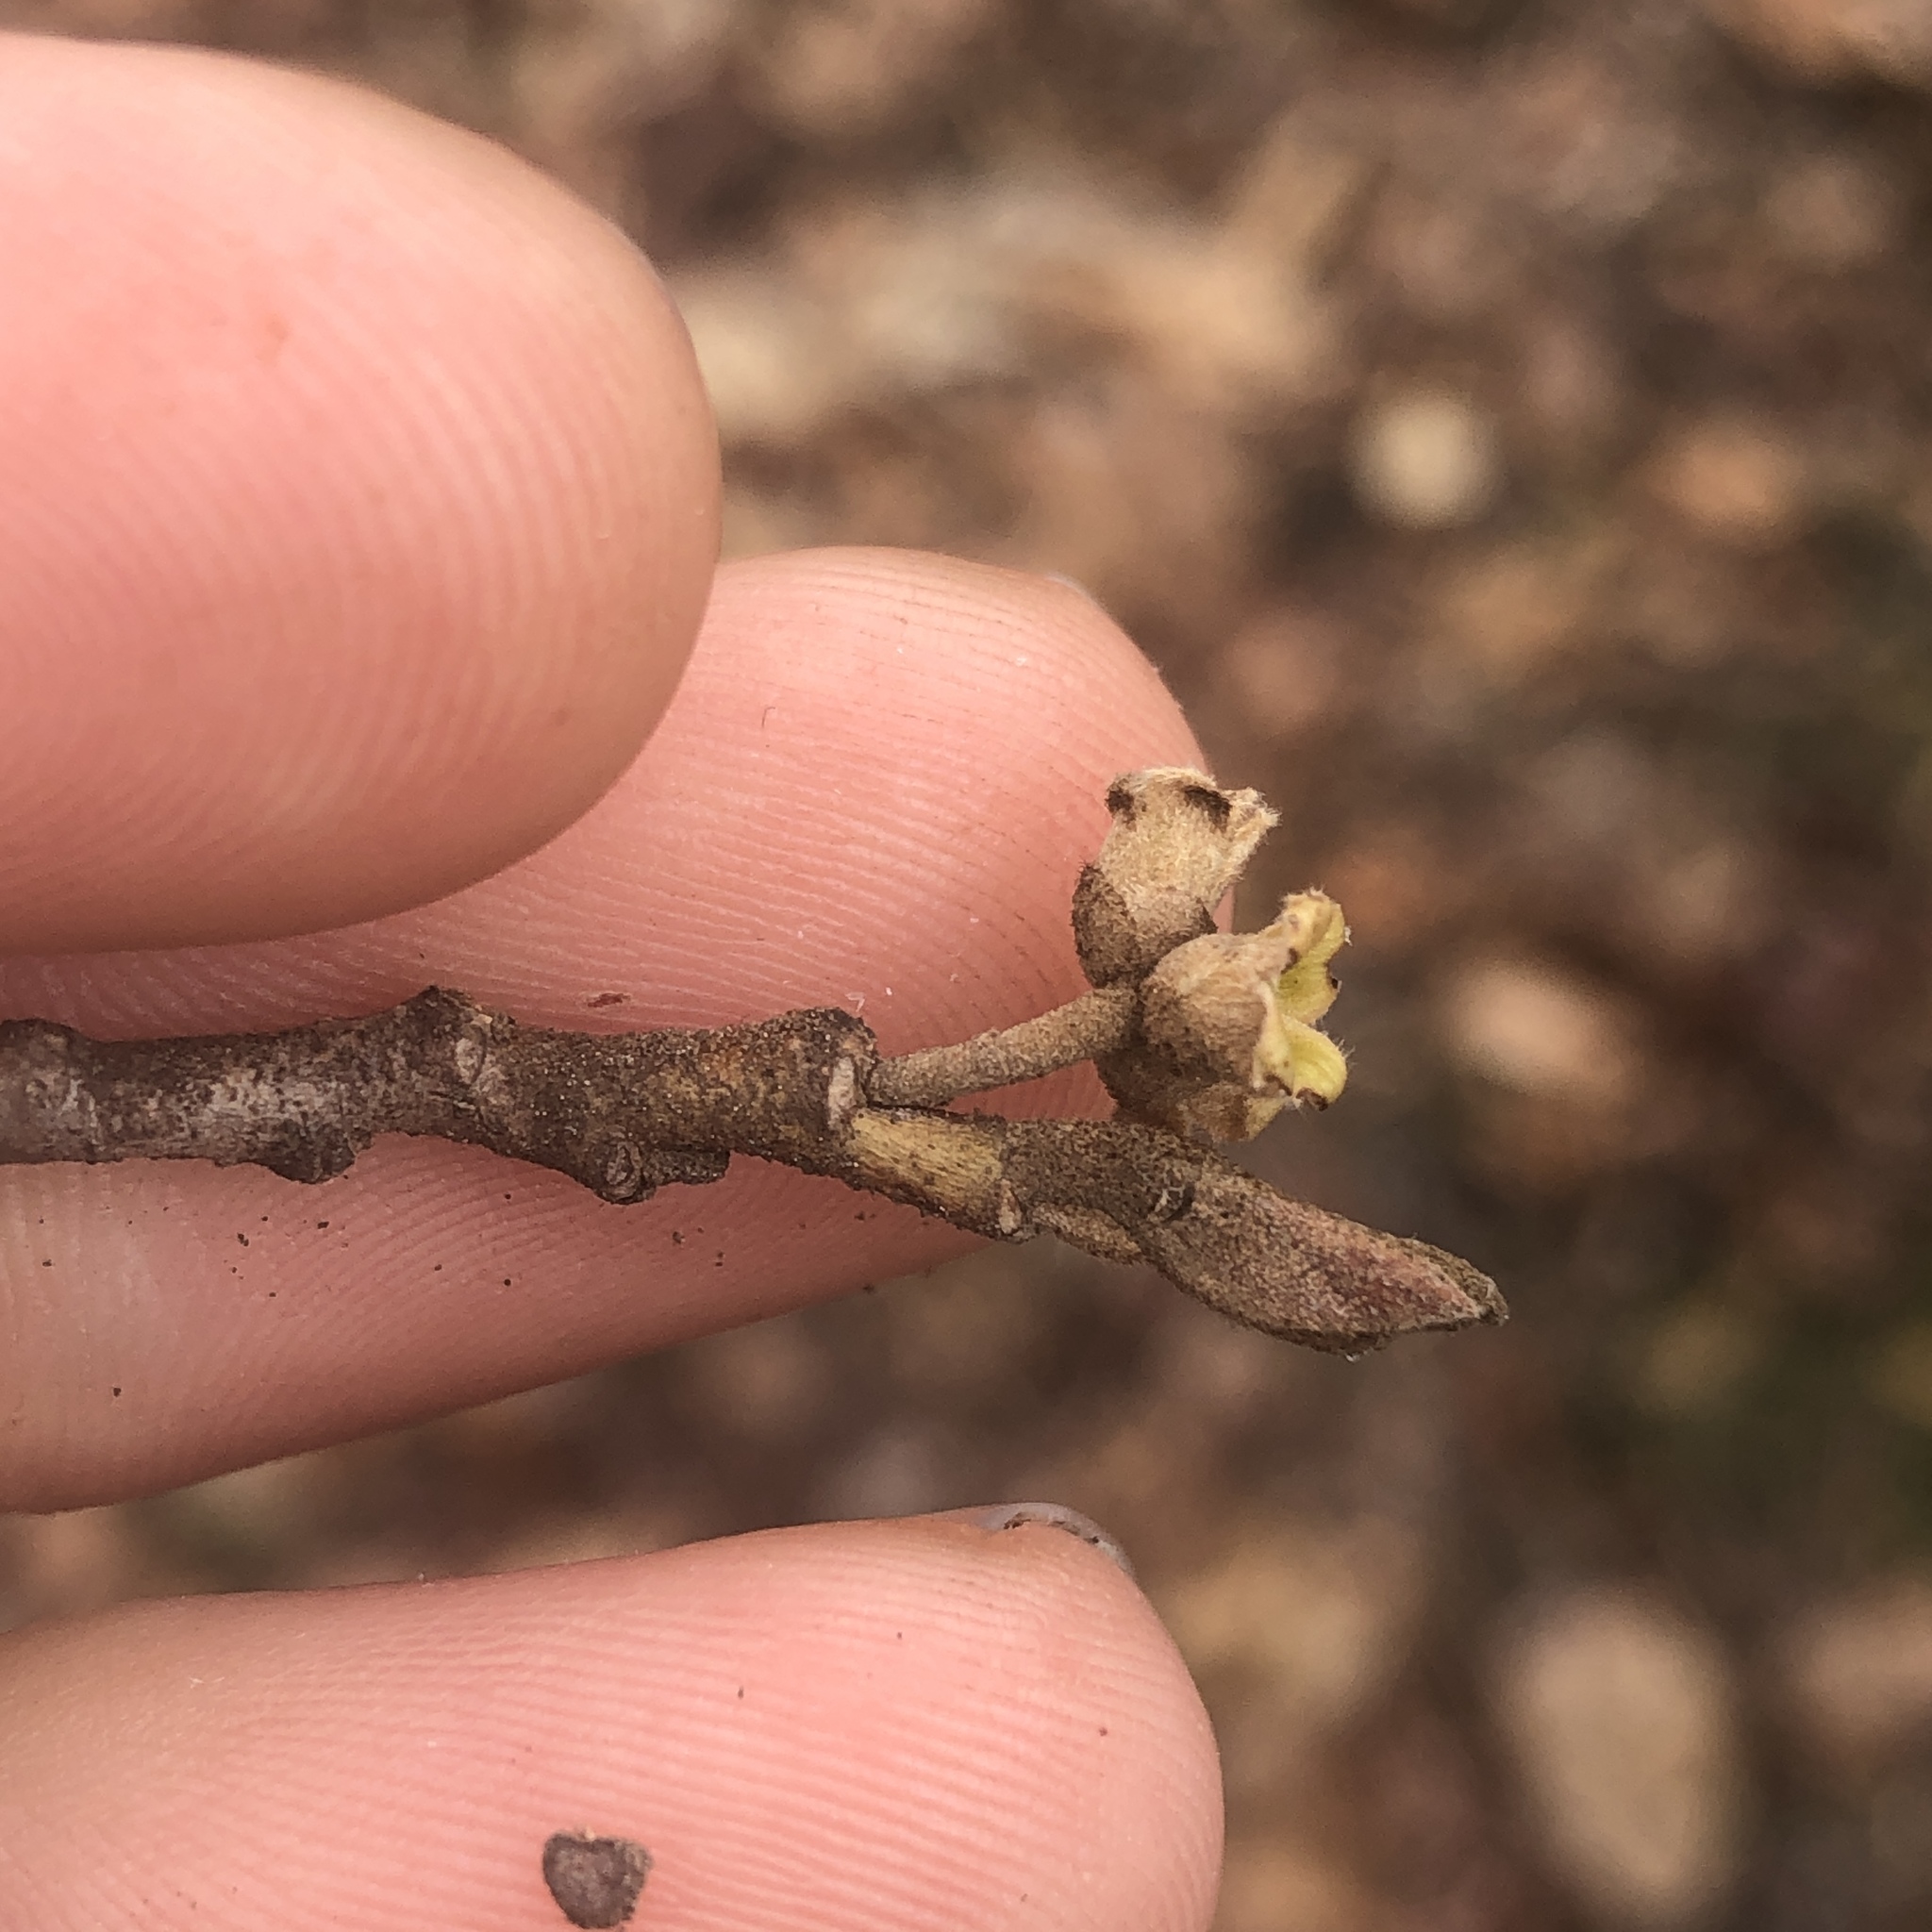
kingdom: Plantae
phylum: Tracheophyta
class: Magnoliopsida
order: Saxifragales
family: Hamamelidaceae
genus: Hamamelis
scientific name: Hamamelis virginiana
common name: Witch-hazel
